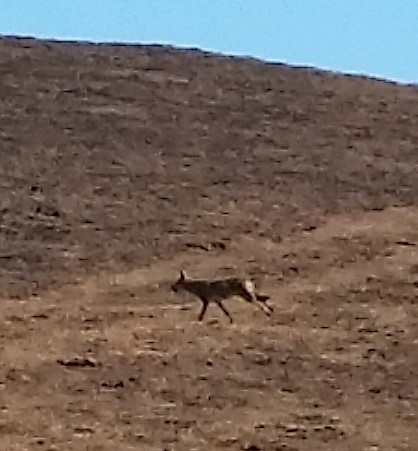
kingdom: Animalia
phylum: Chordata
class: Mammalia
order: Carnivora
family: Canidae
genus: Canis
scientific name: Canis latrans
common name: Coyote
